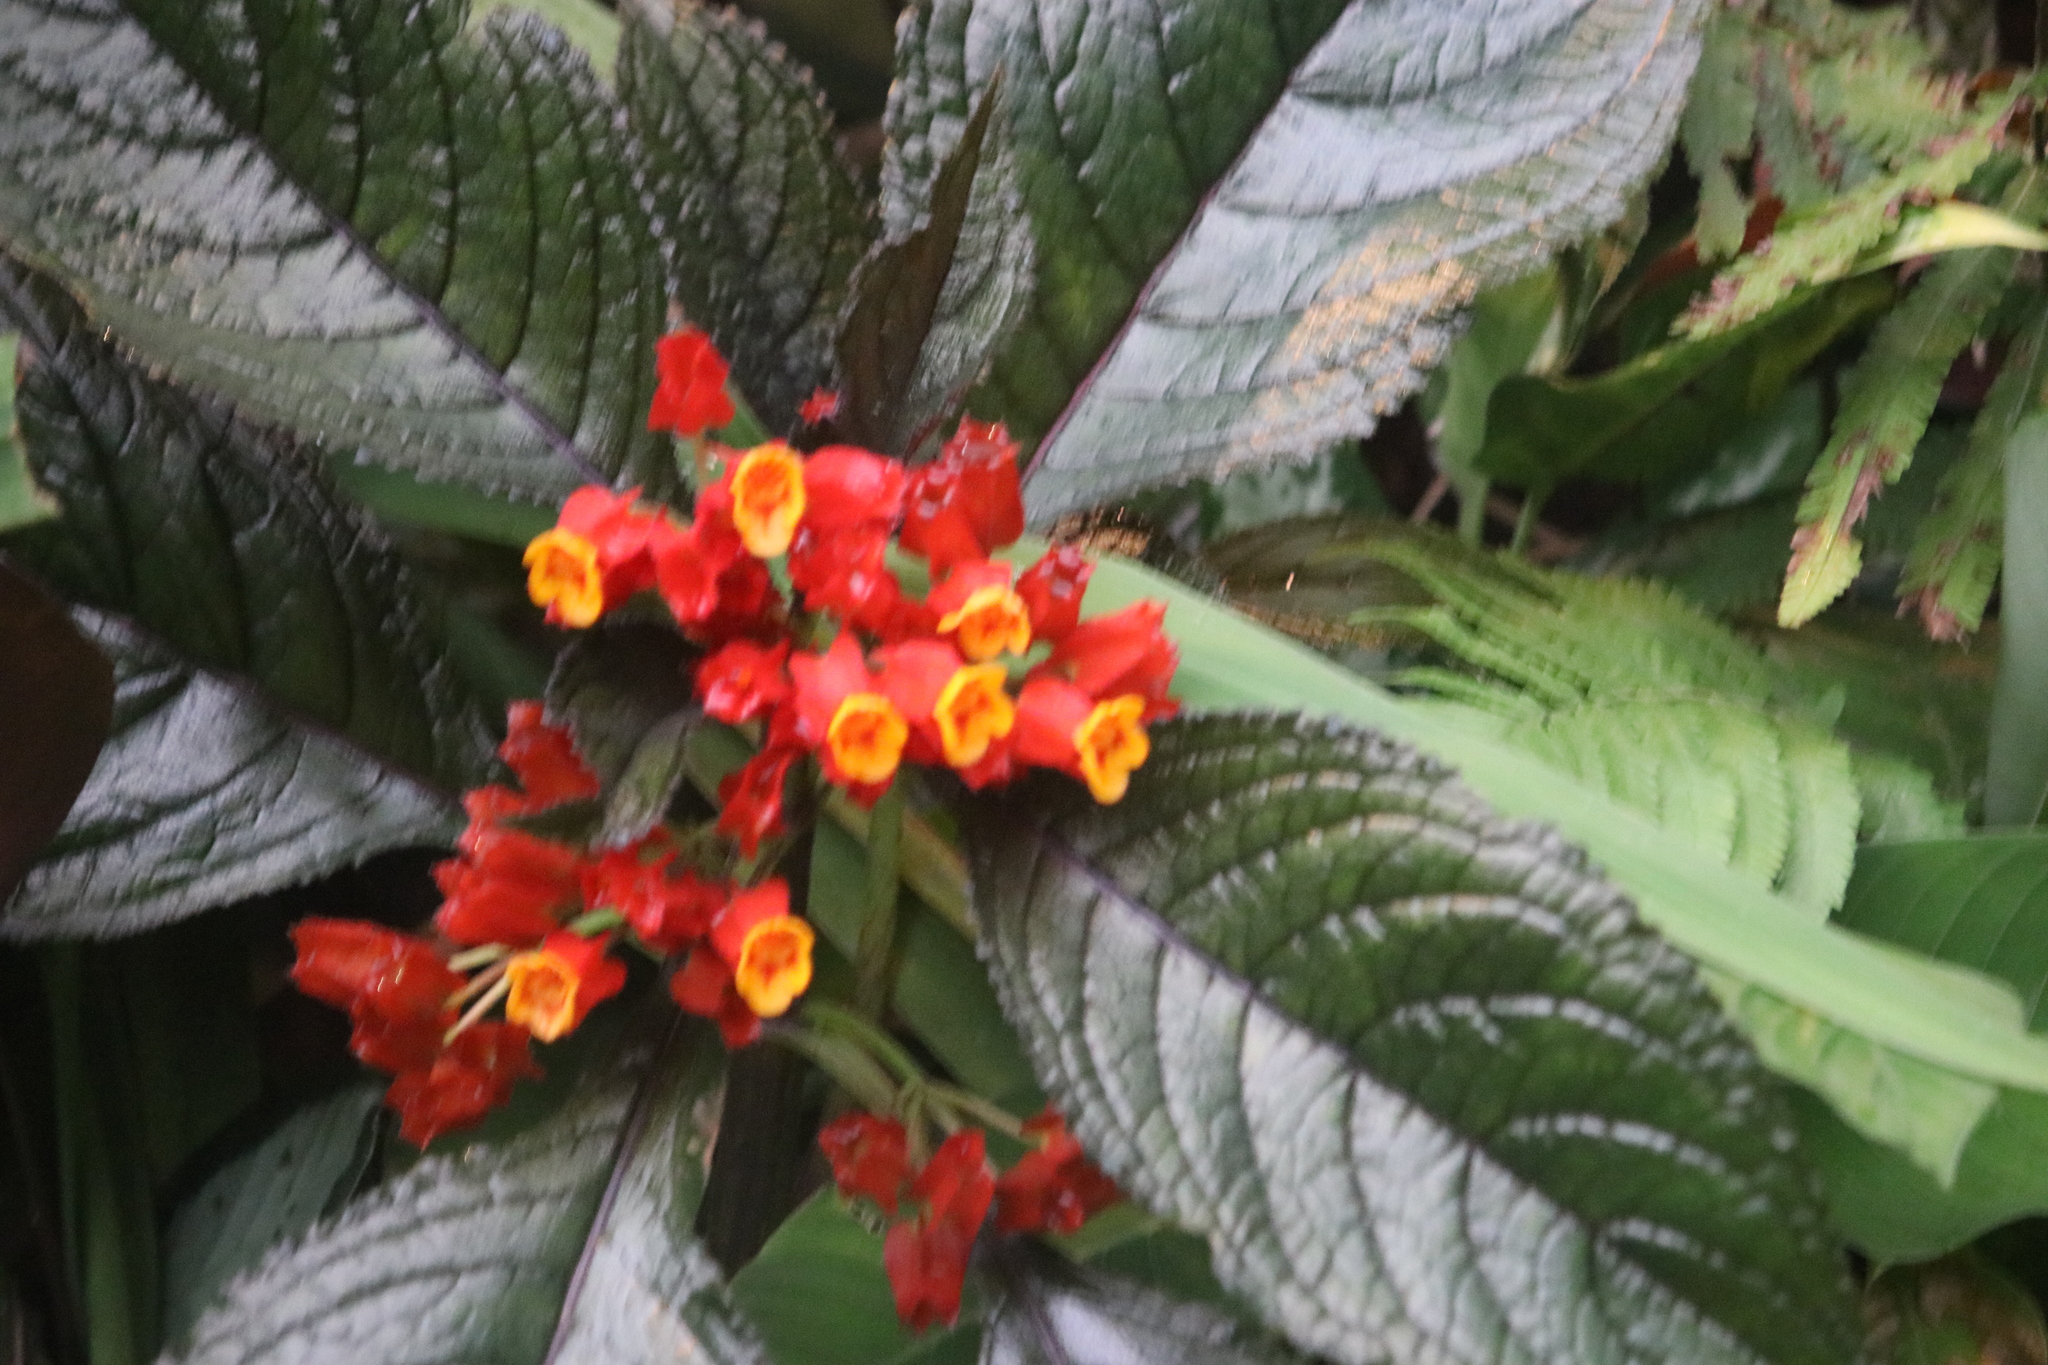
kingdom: Plantae
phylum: Tracheophyta
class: Magnoliopsida
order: Lamiales
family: Gesneriaceae
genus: Chrysothemis
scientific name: Chrysothemis pulchella
